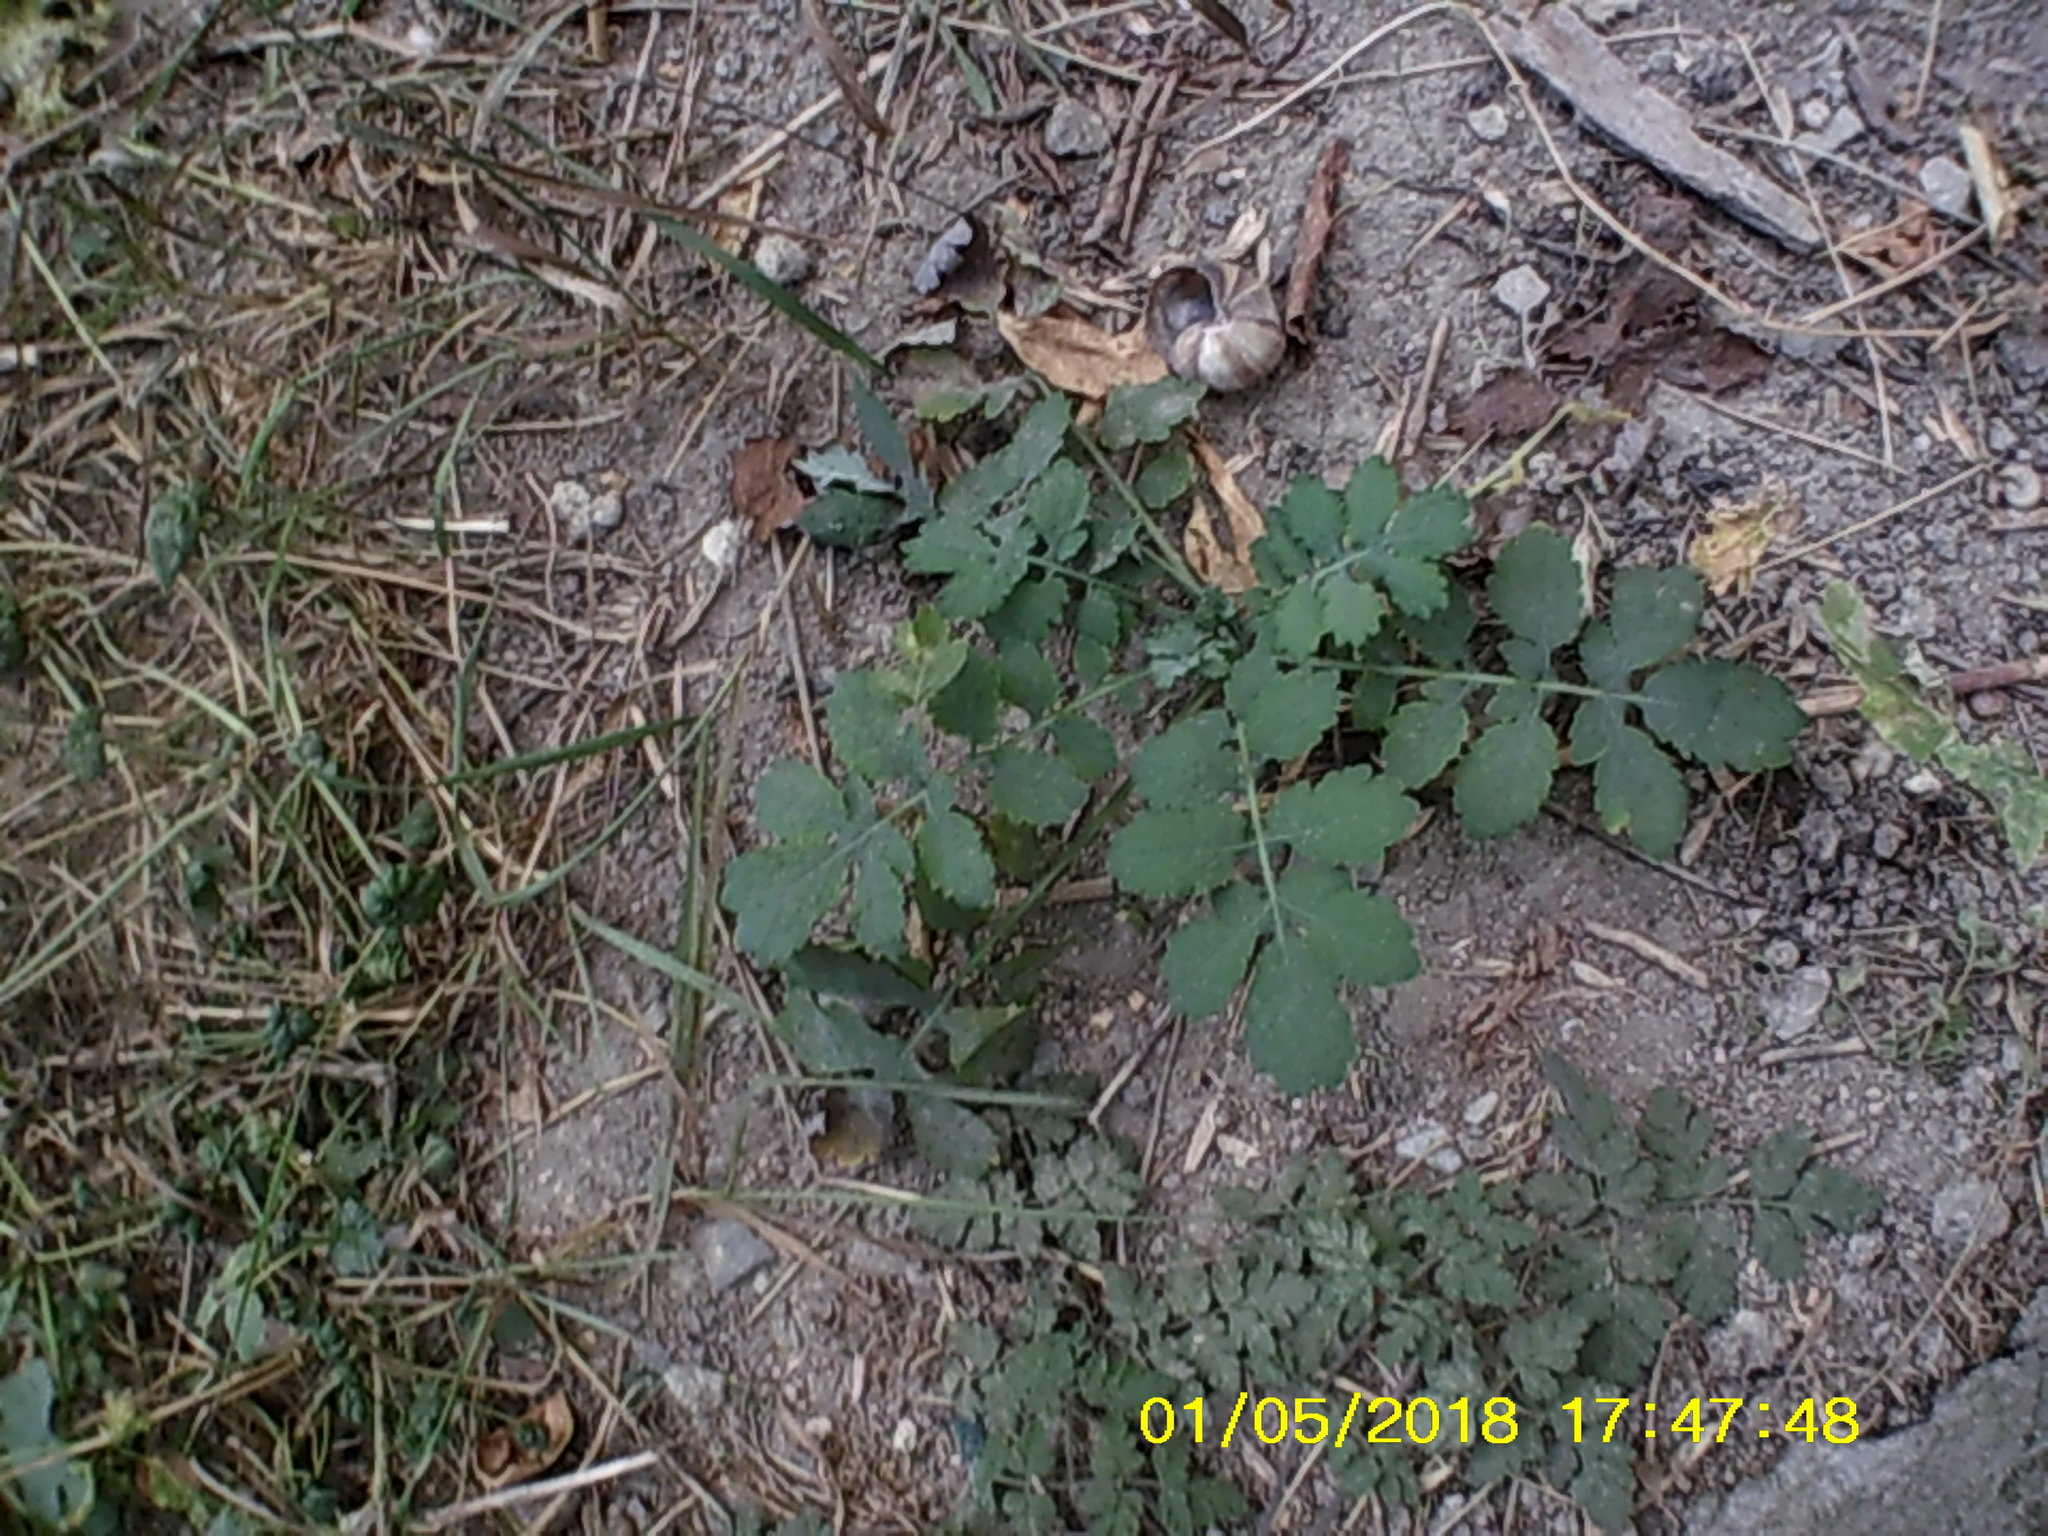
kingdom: Plantae
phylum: Tracheophyta
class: Magnoliopsida
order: Ranunculales
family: Papaveraceae
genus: Chelidonium
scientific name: Chelidonium majus
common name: Greater celandine
